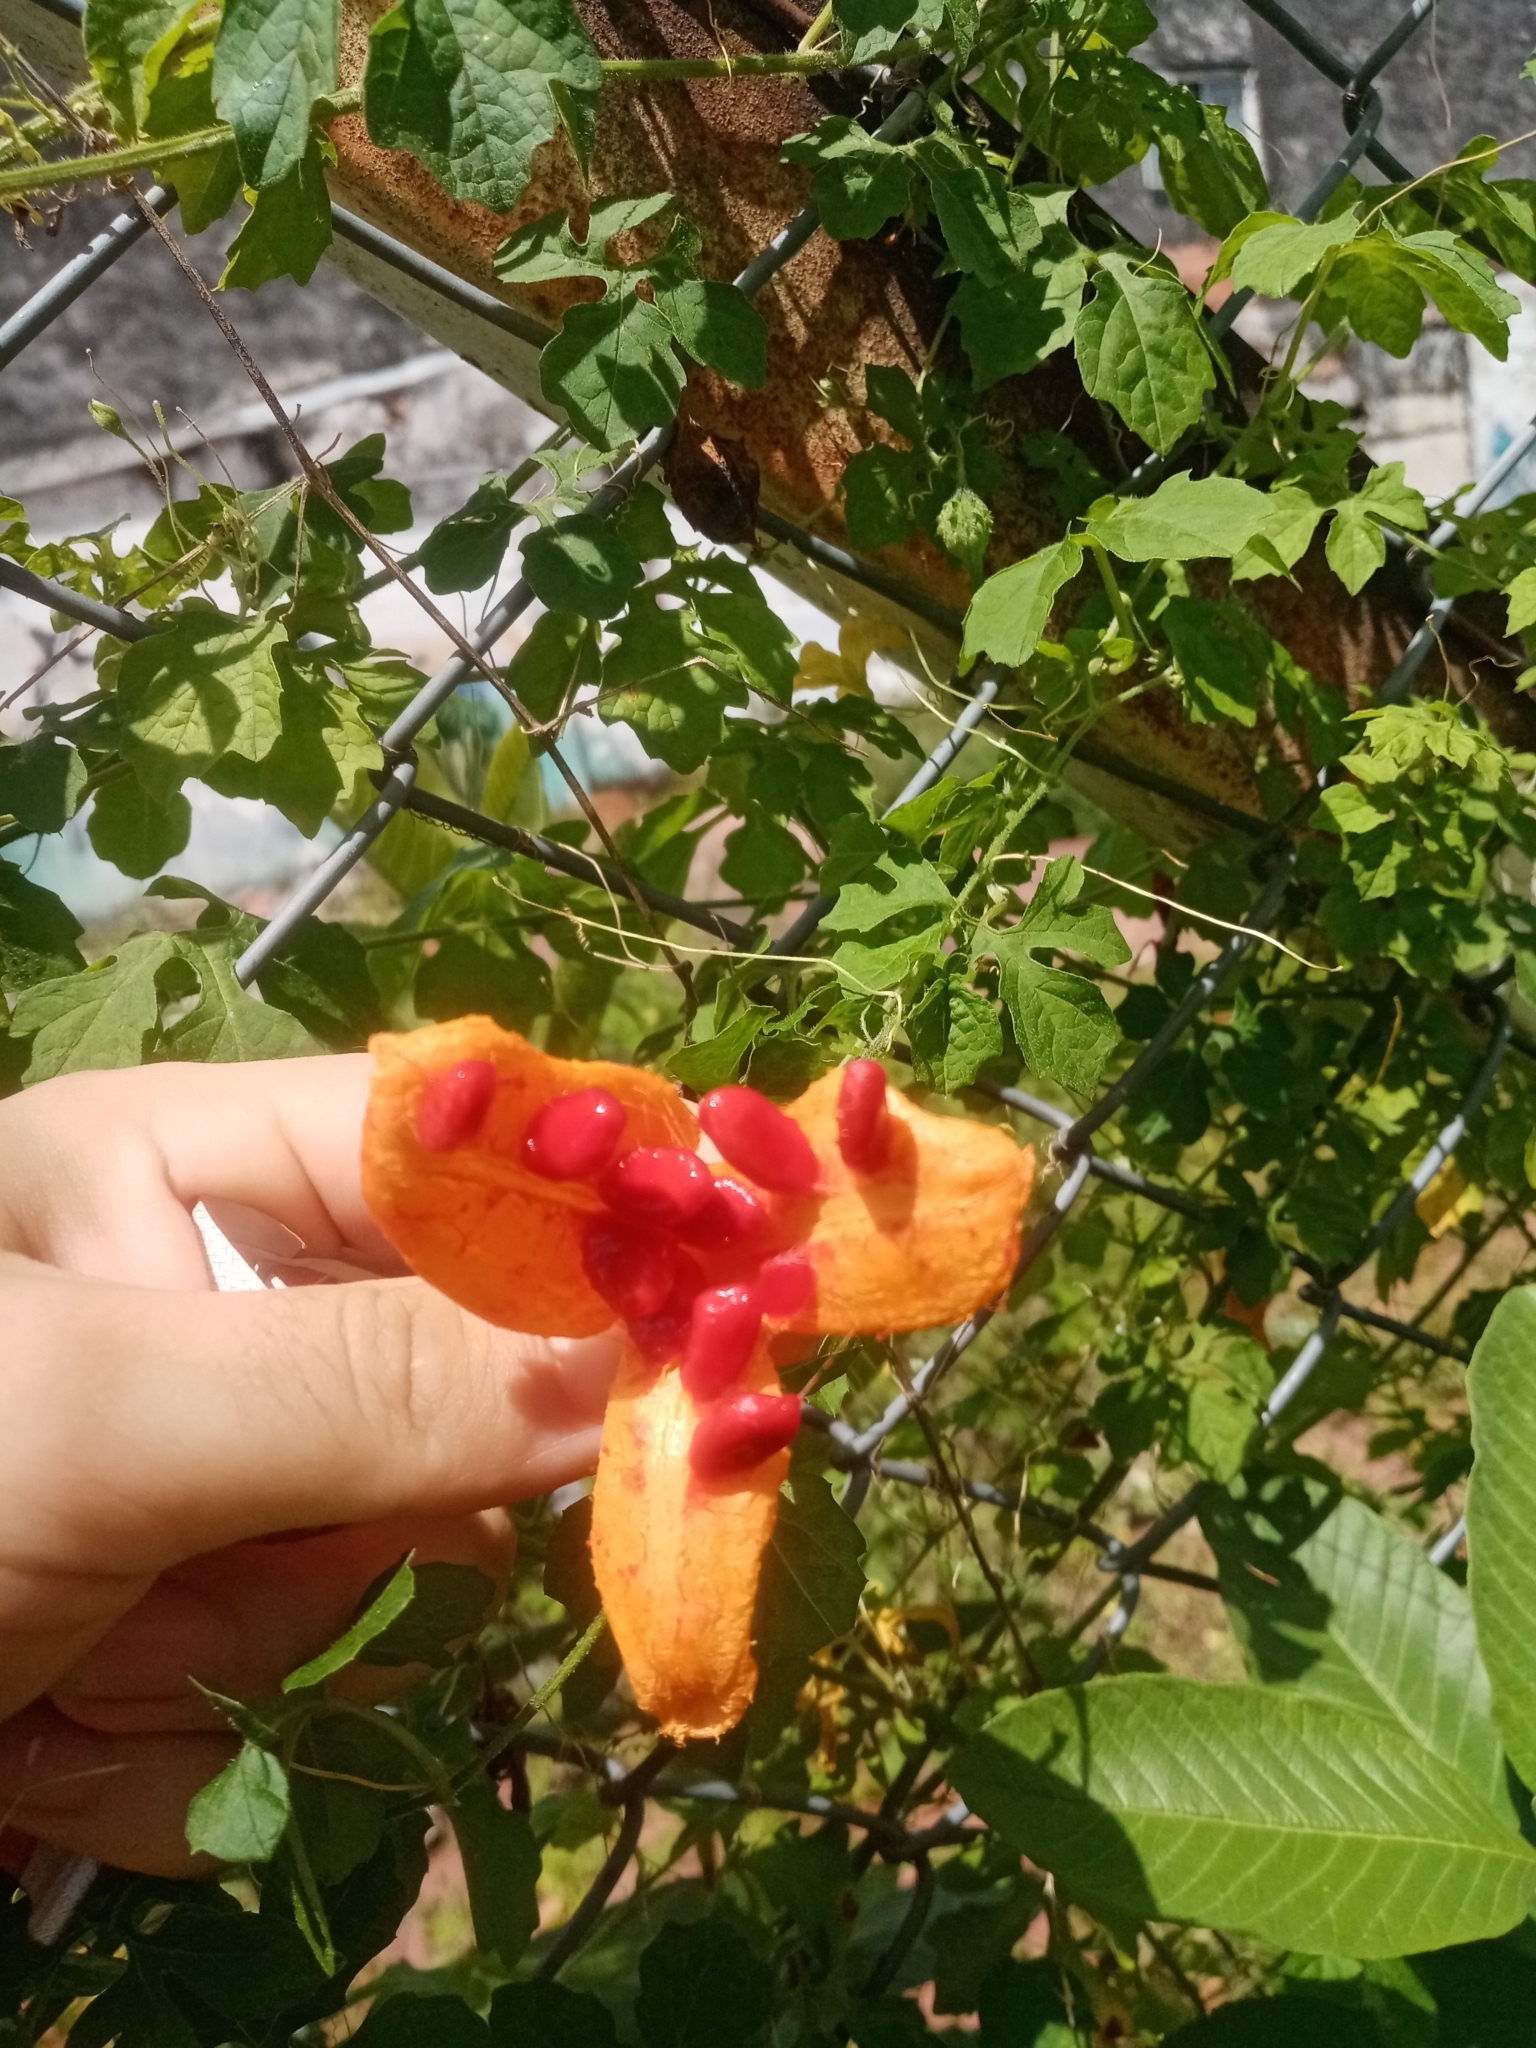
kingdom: Plantae
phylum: Tracheophyta
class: Magnoliopsida
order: Cucurbitales
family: Cucurbitaceae
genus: Momordica
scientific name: Momordica charantia
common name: Balsampear
